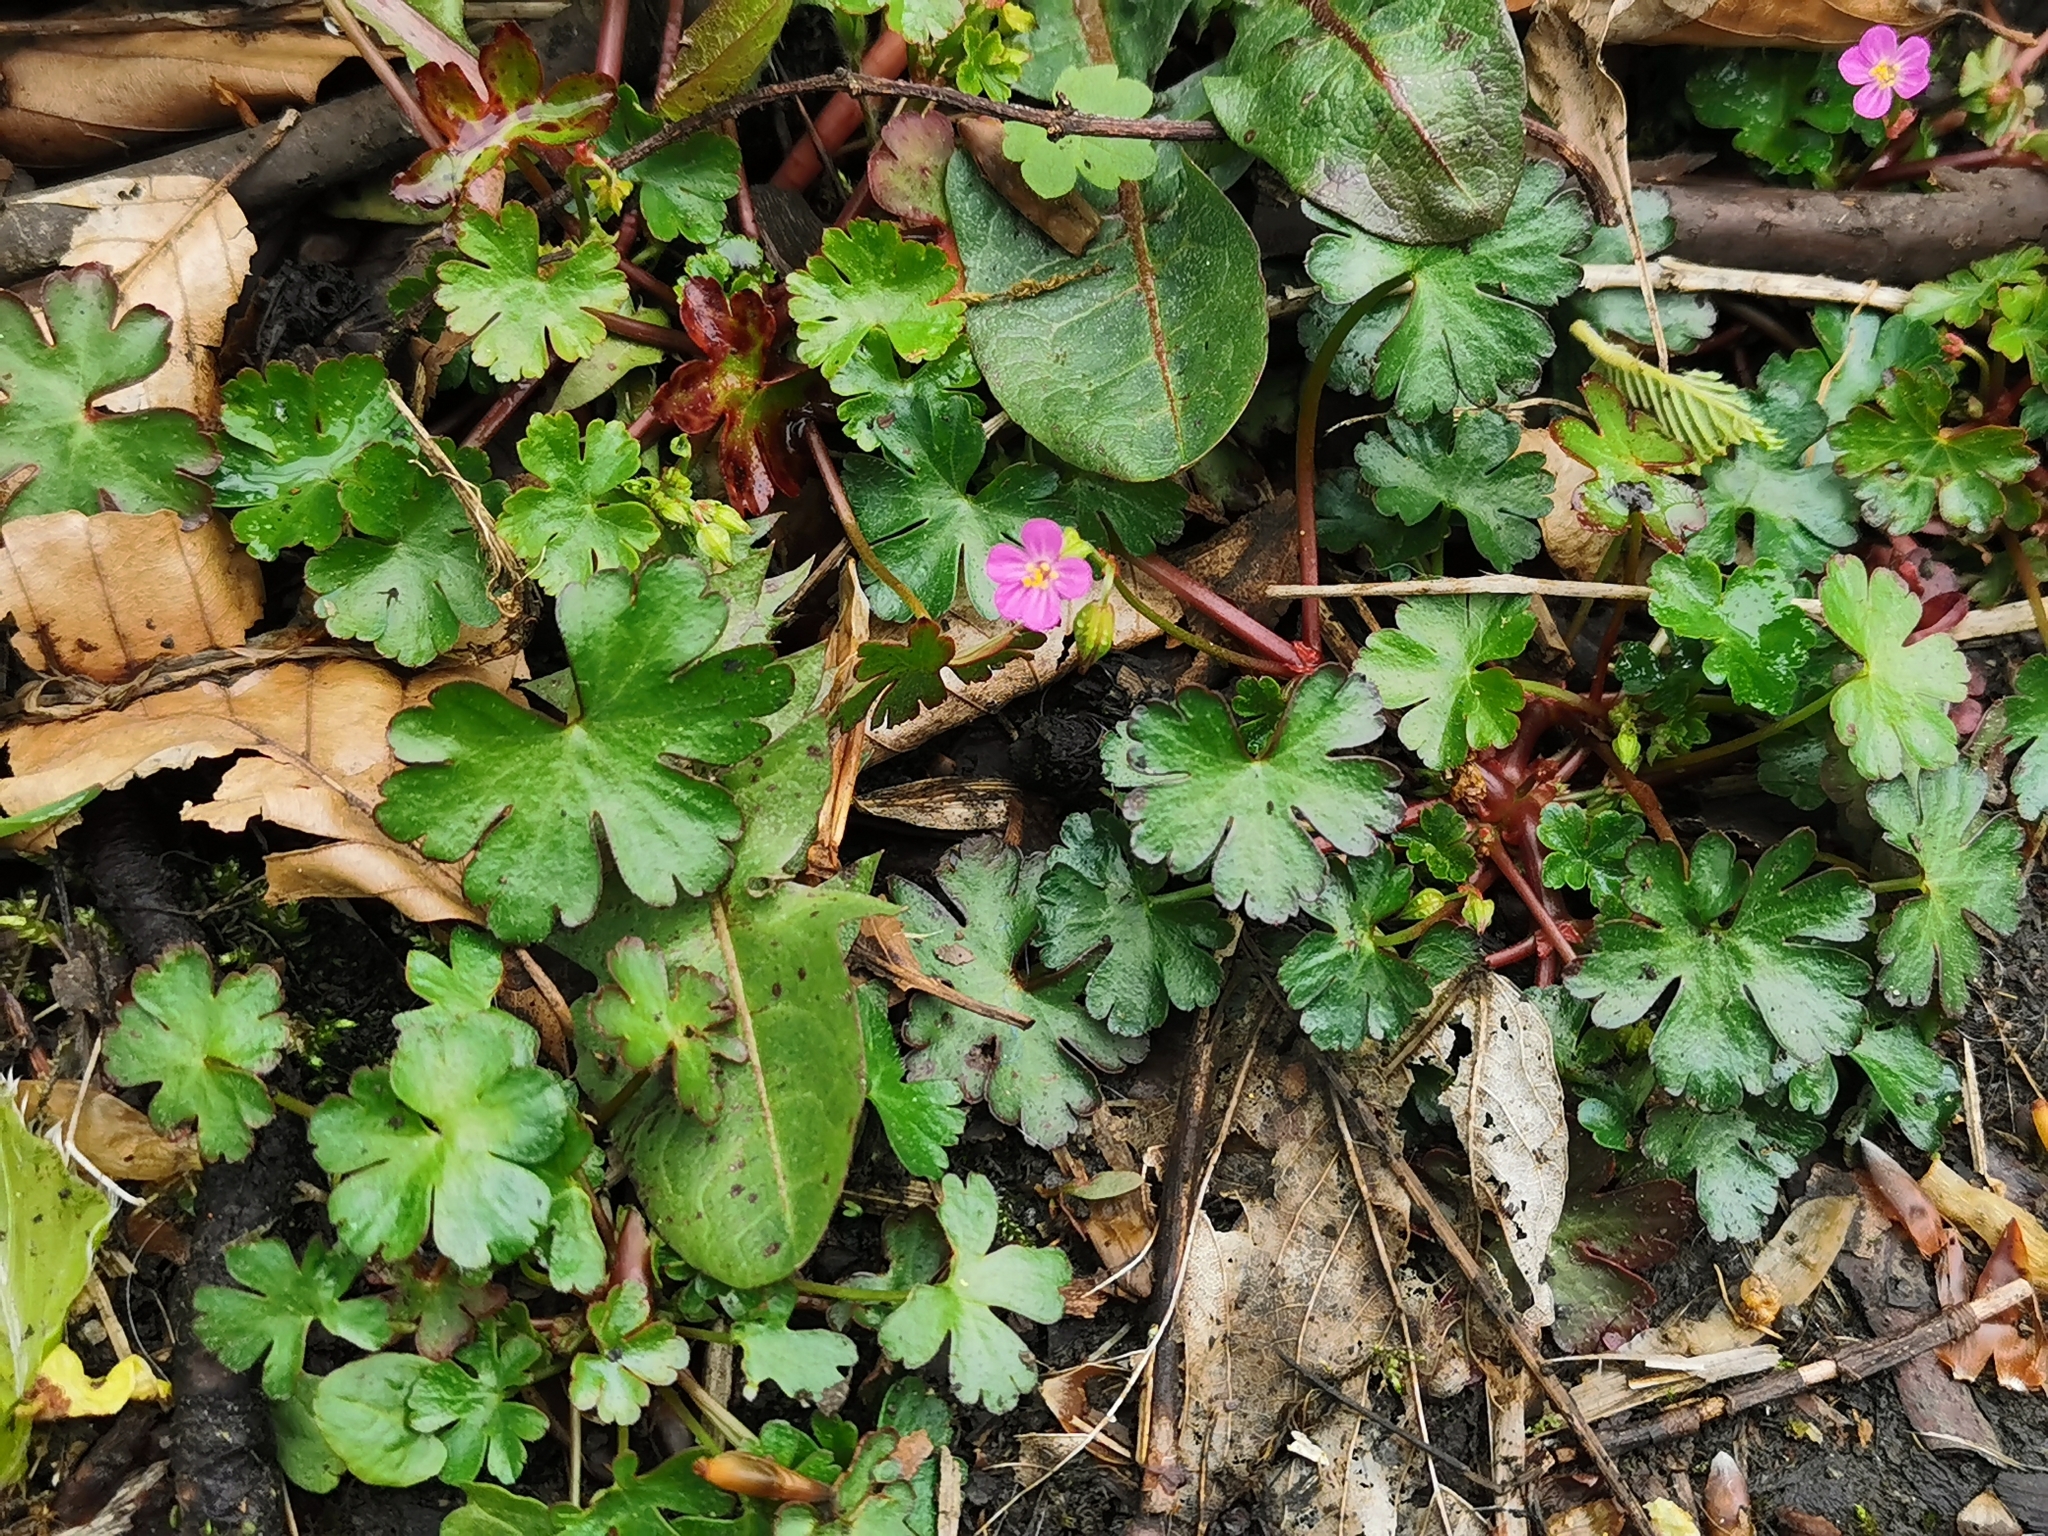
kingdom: Plantae
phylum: Tracheophyta
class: Magnoliopsida
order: Geraniales
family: Geraniaceae
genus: Geranium
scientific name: Geranium lucidum
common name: Shining crane's-bill
